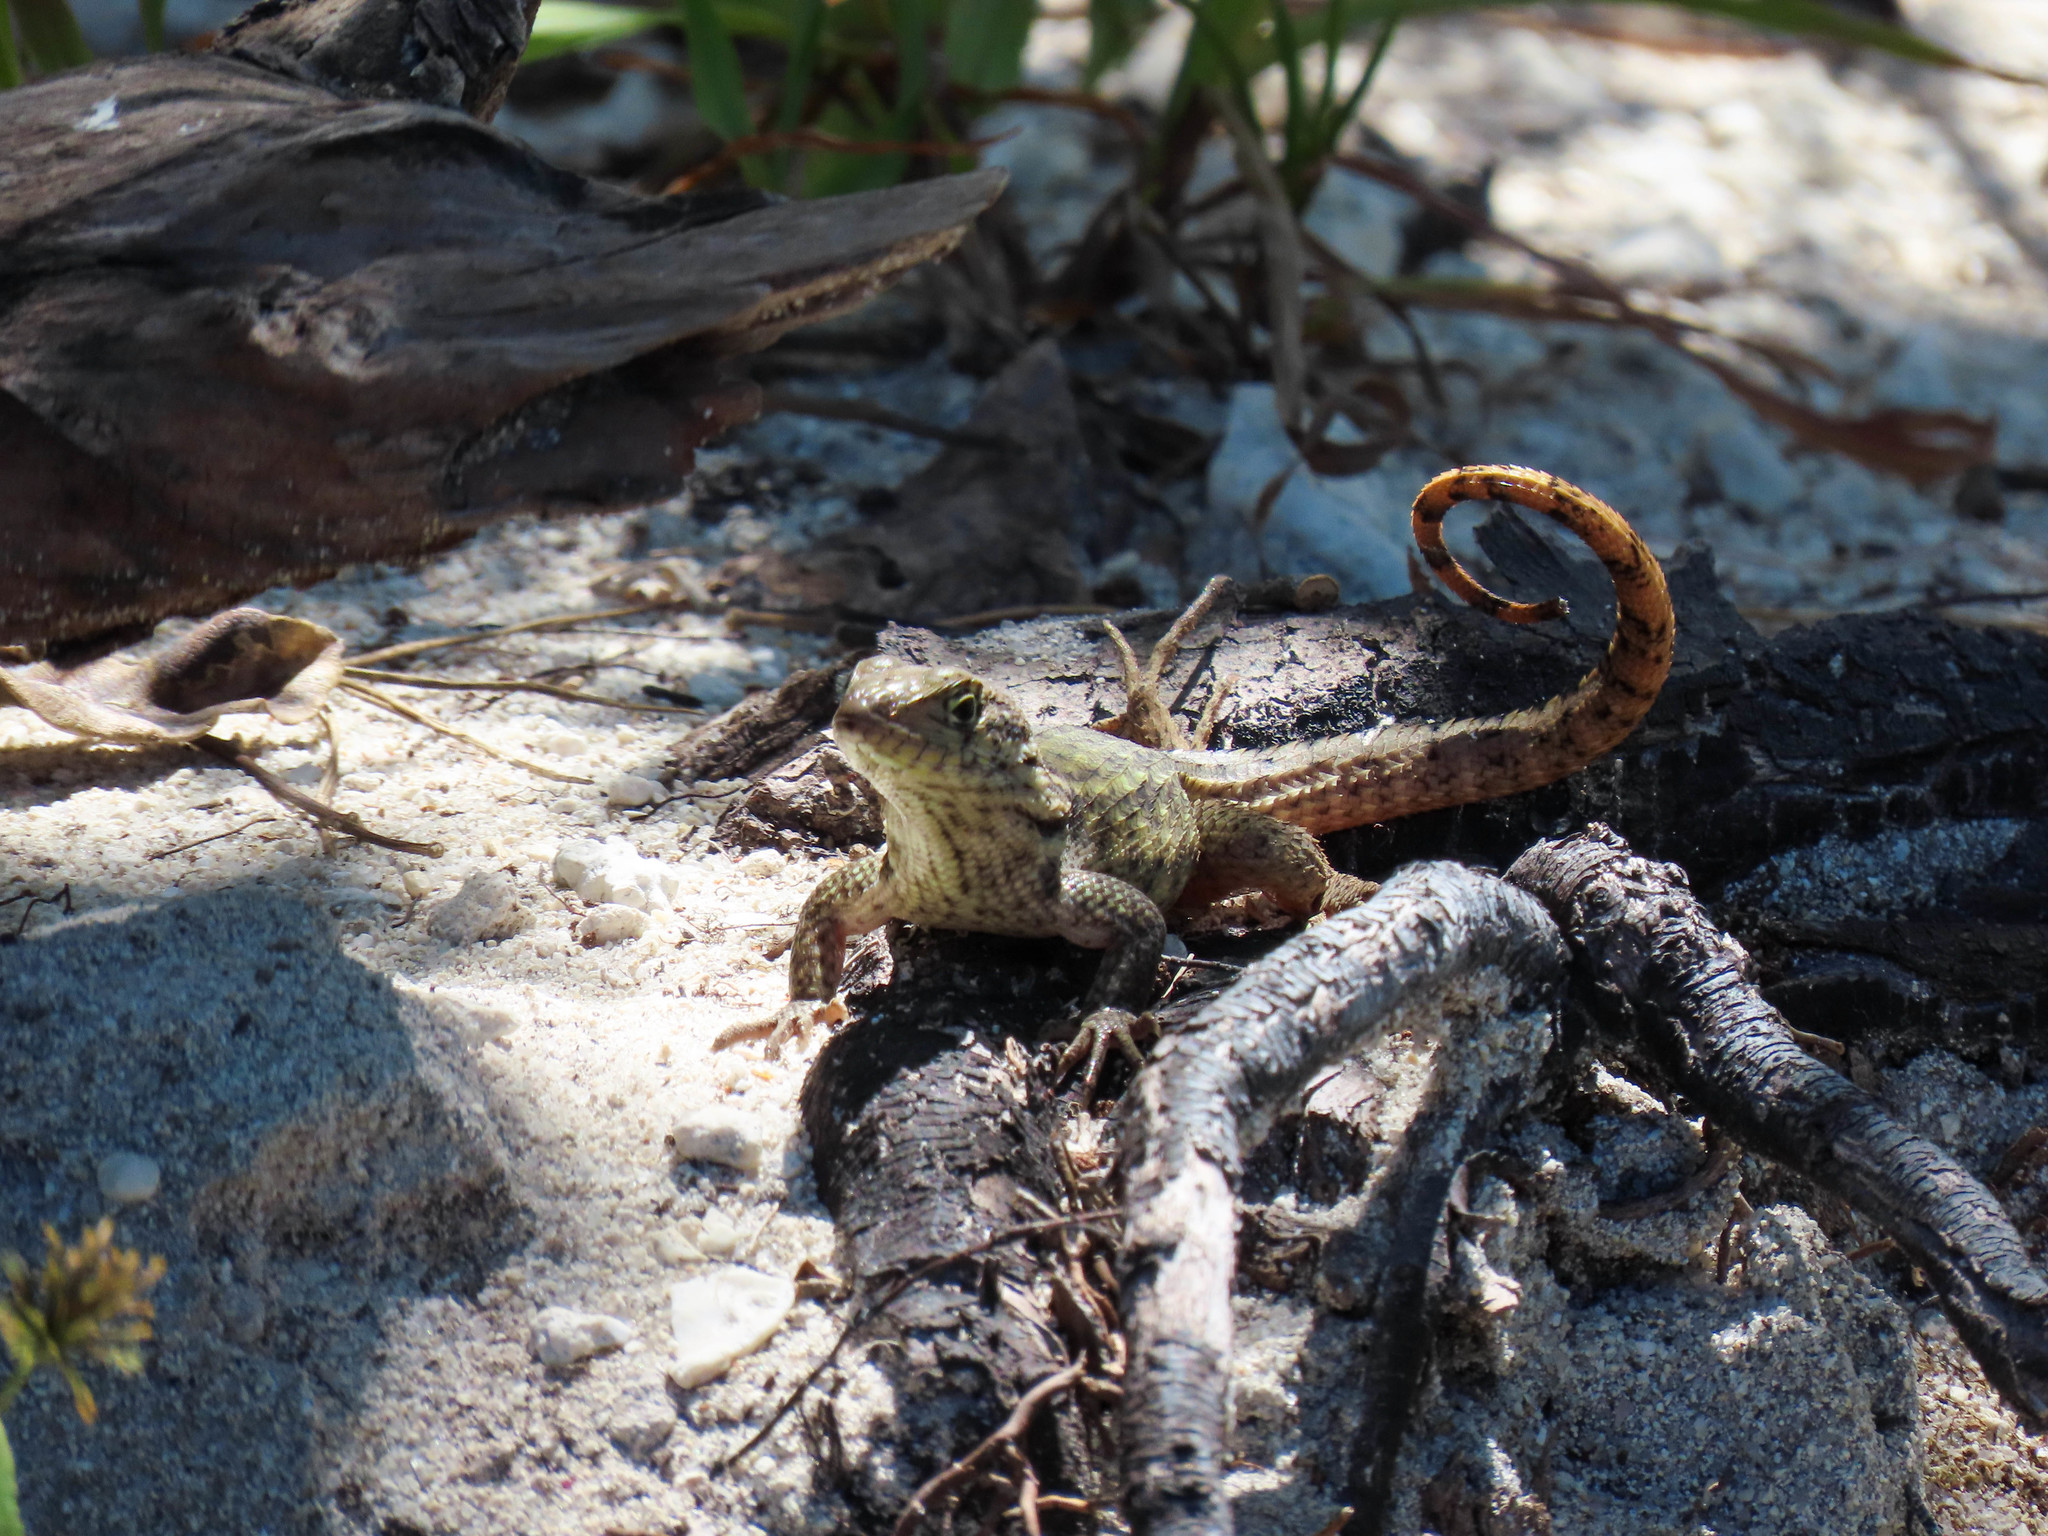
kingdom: Animalia
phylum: Chordata
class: Squamata
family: Leiocephalidae
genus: Leiocephalus
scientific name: Leiocephalus carinatus
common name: Northern curly-tailed lizard
